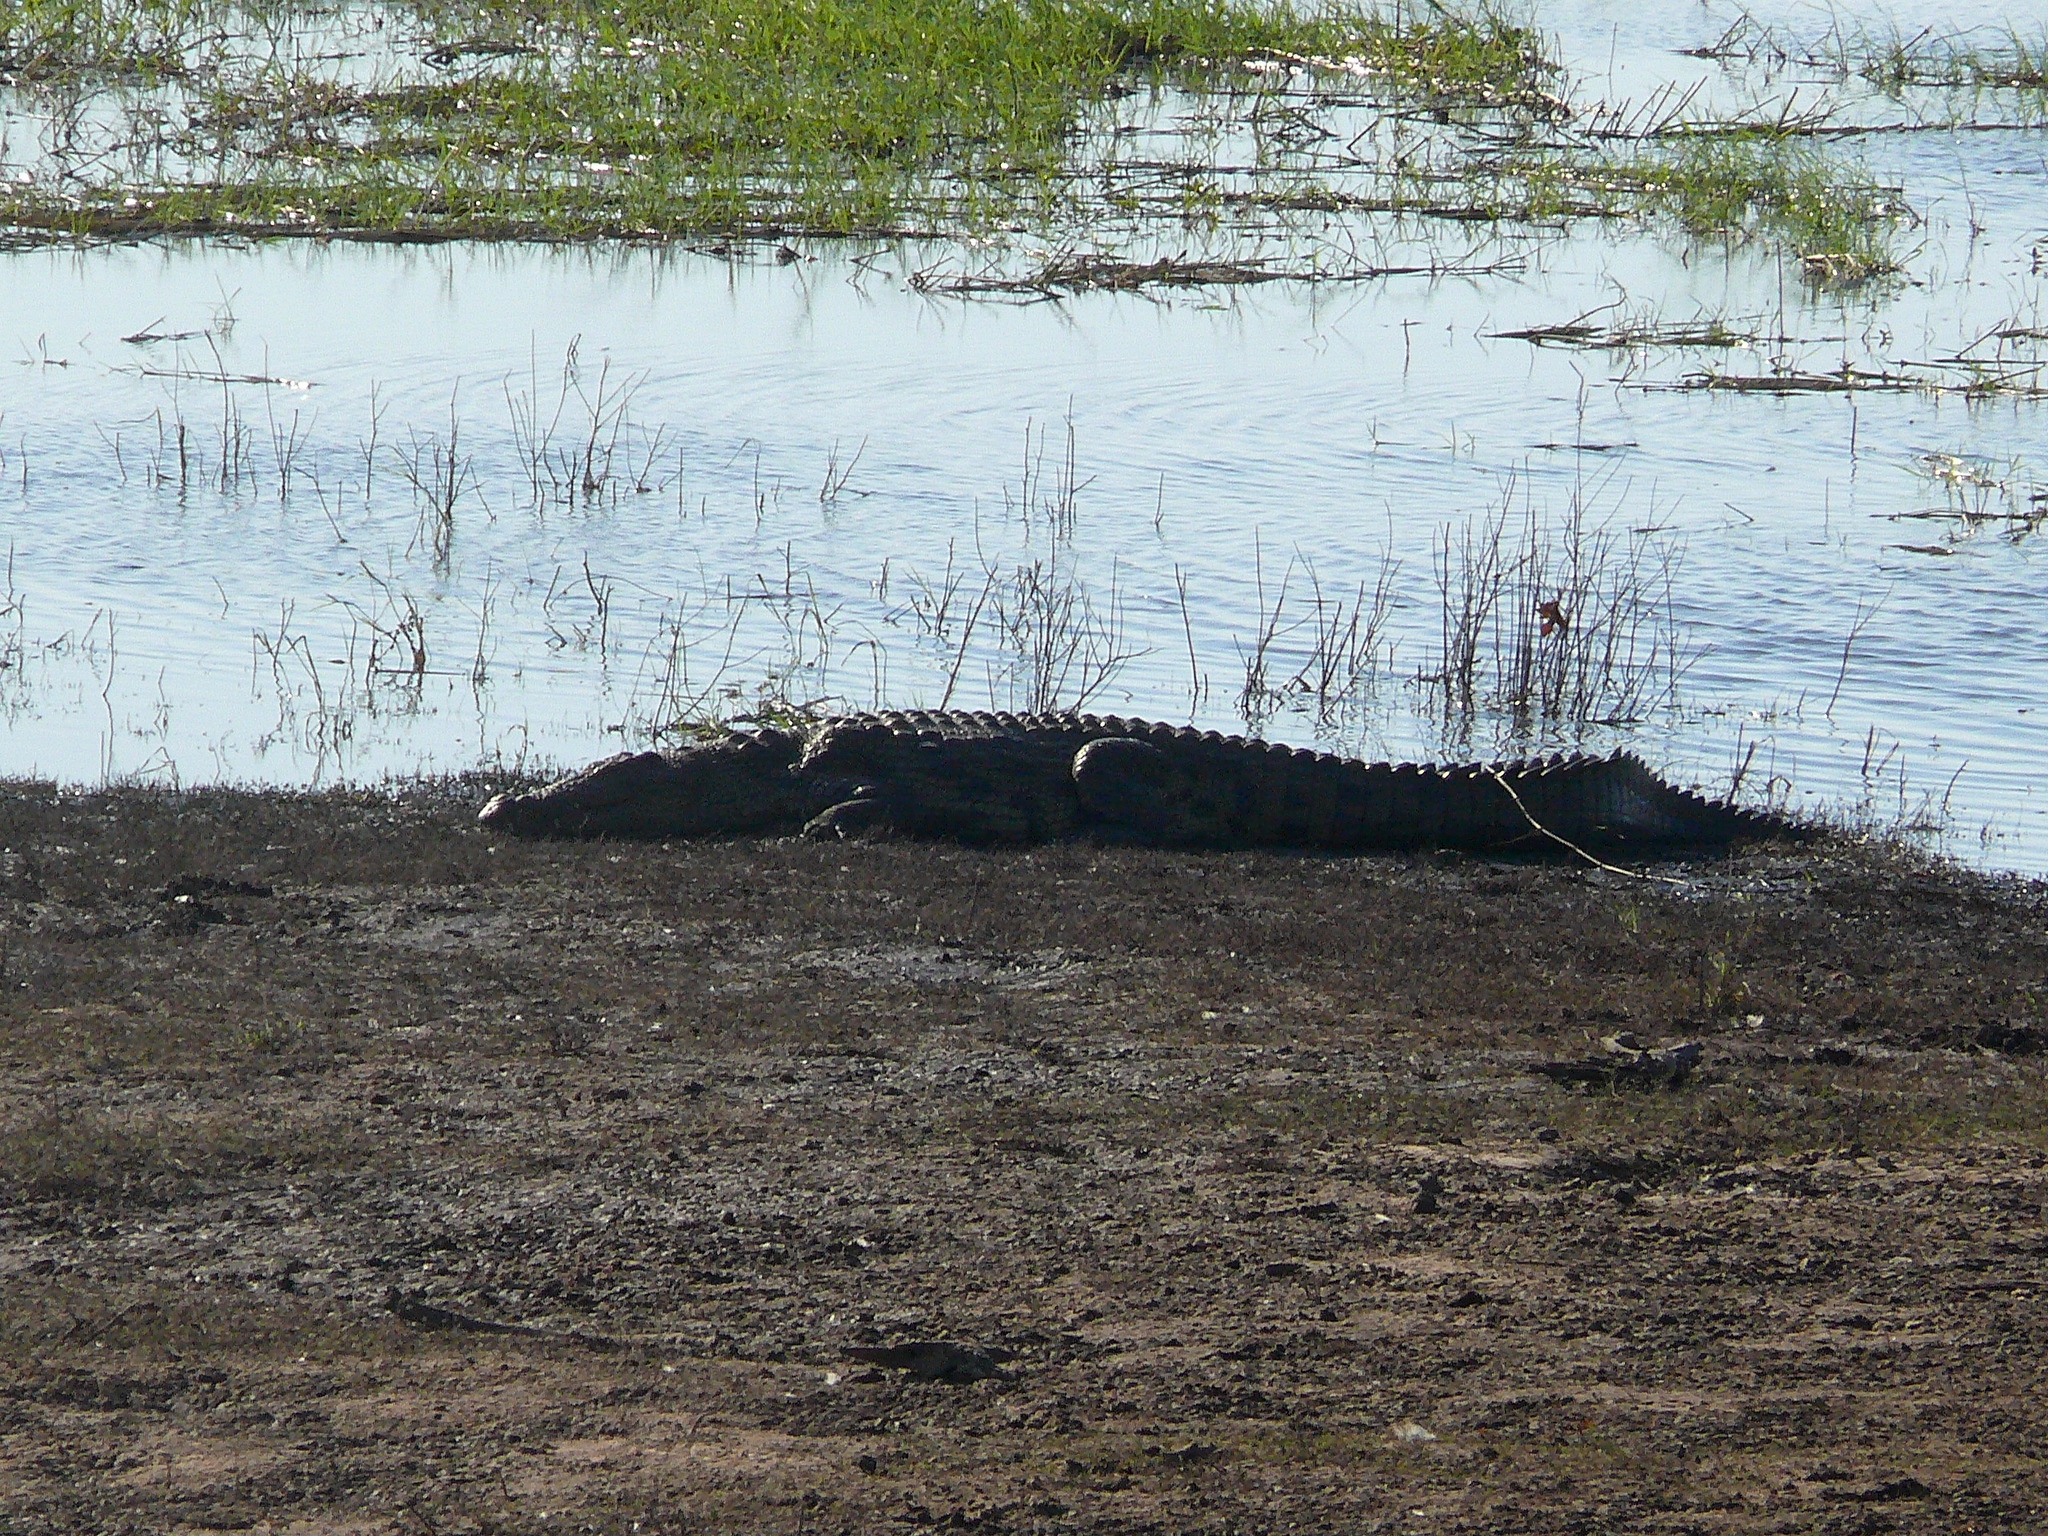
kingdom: Animalia
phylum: Chordata
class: Crocodylia
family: Crocodylidae
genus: Crocodylus
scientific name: Crocodylus niloticus
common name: Nile crocodile
